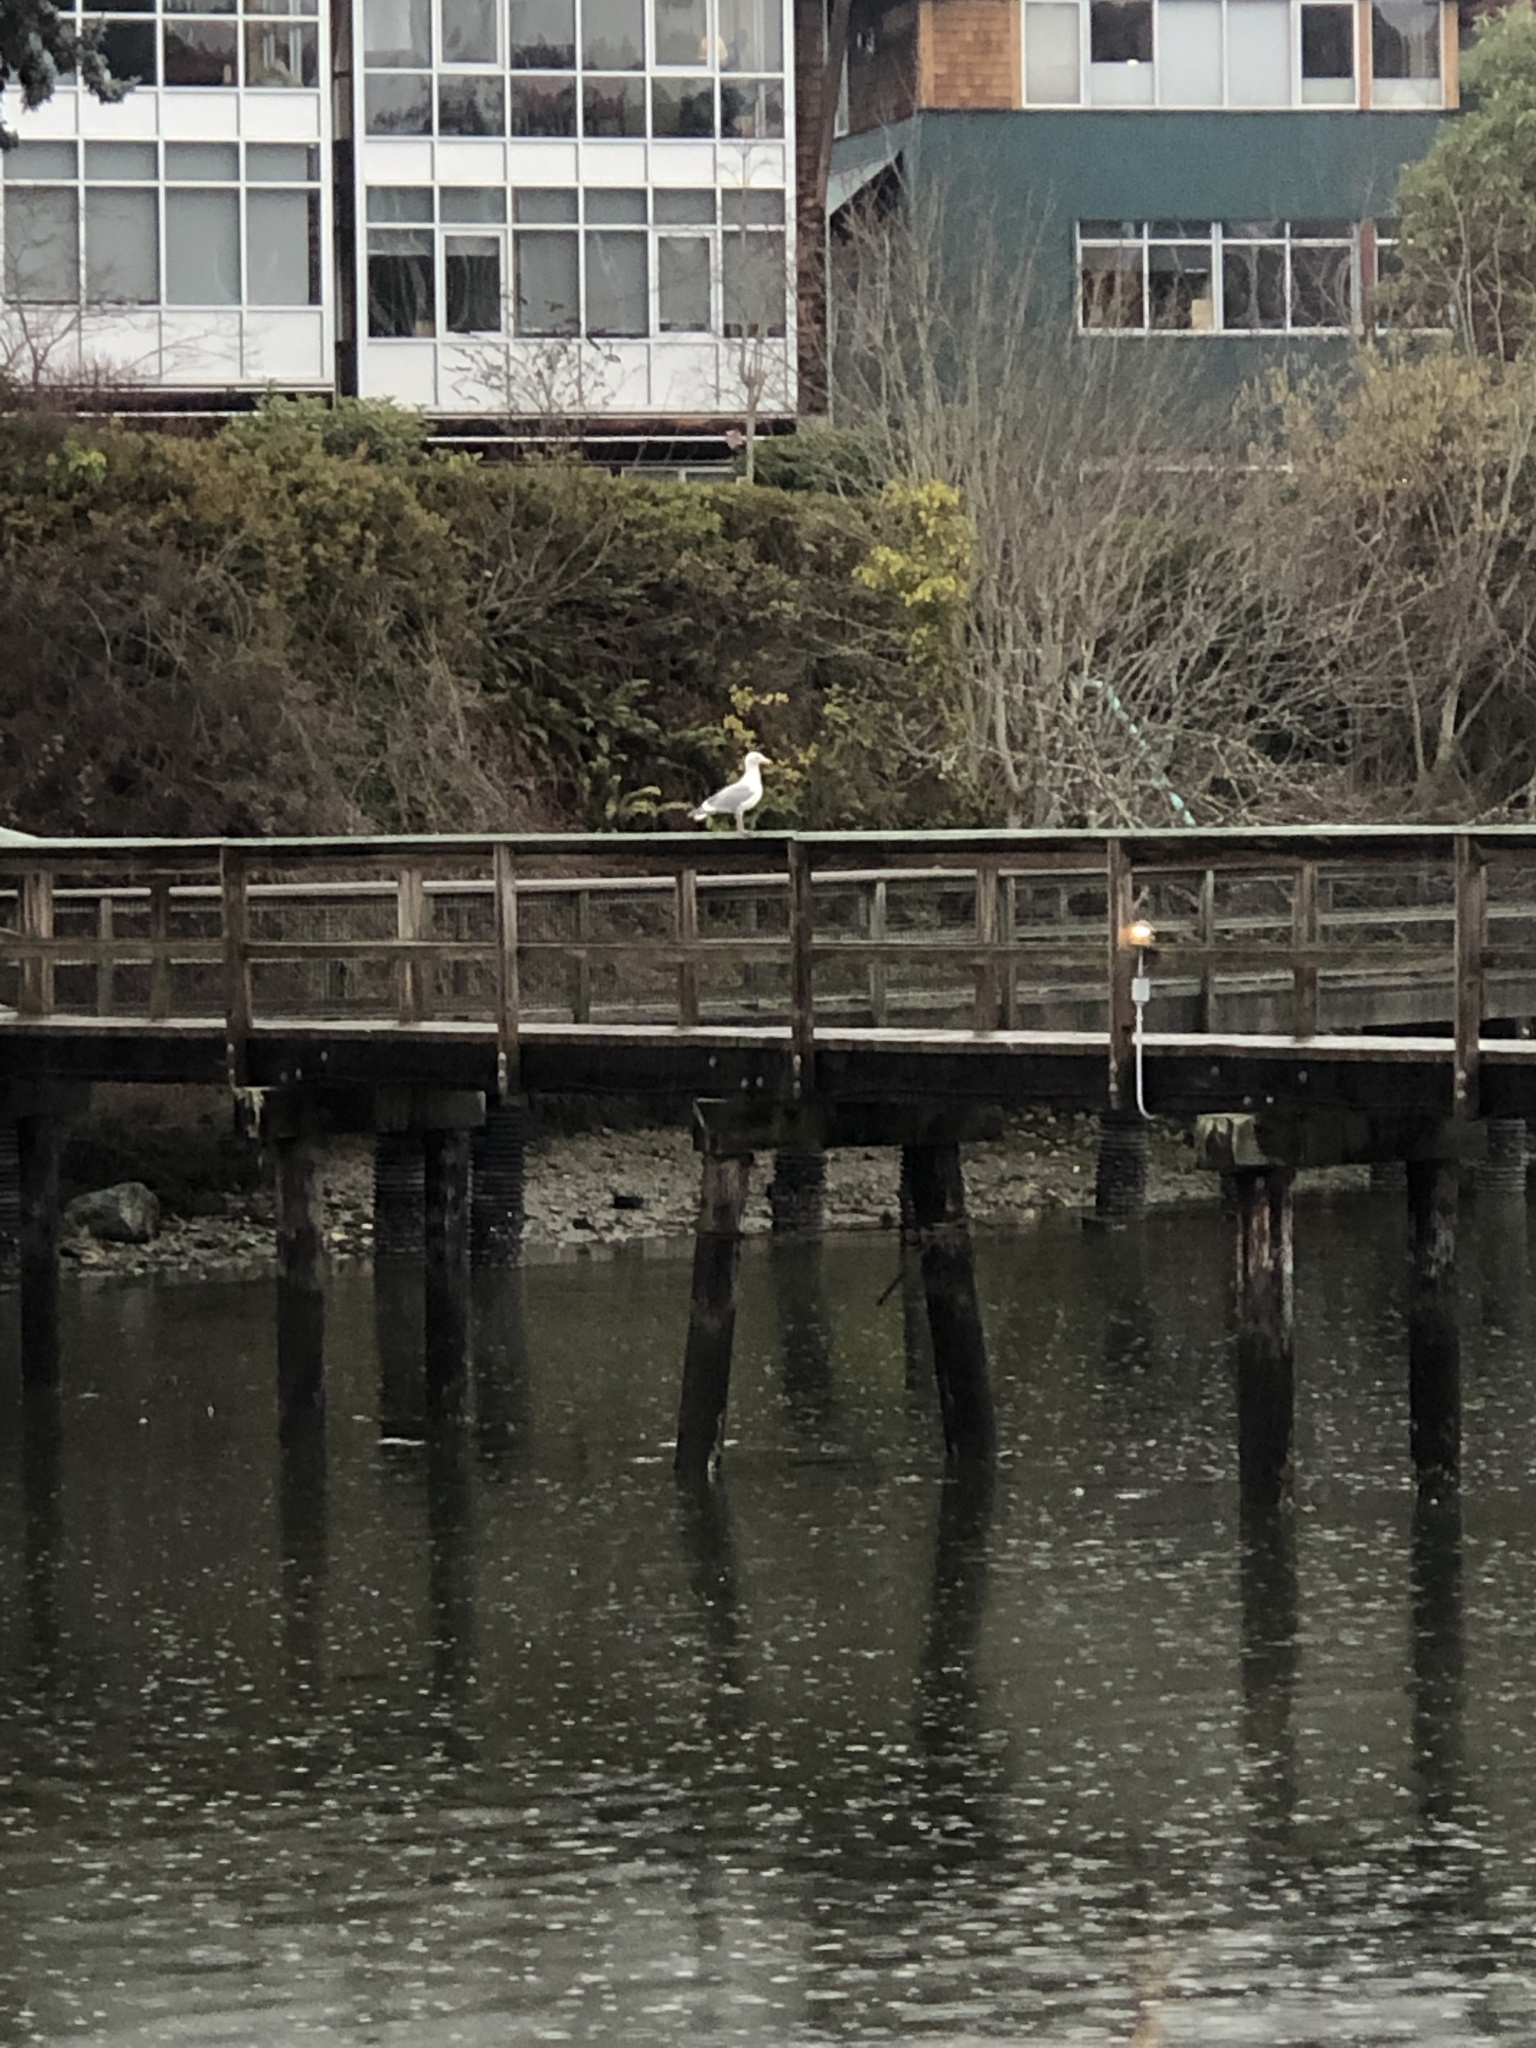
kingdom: Animalia
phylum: Chordata
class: Aves
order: Charadriiformes
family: Laridae
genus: Larus
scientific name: Larus
